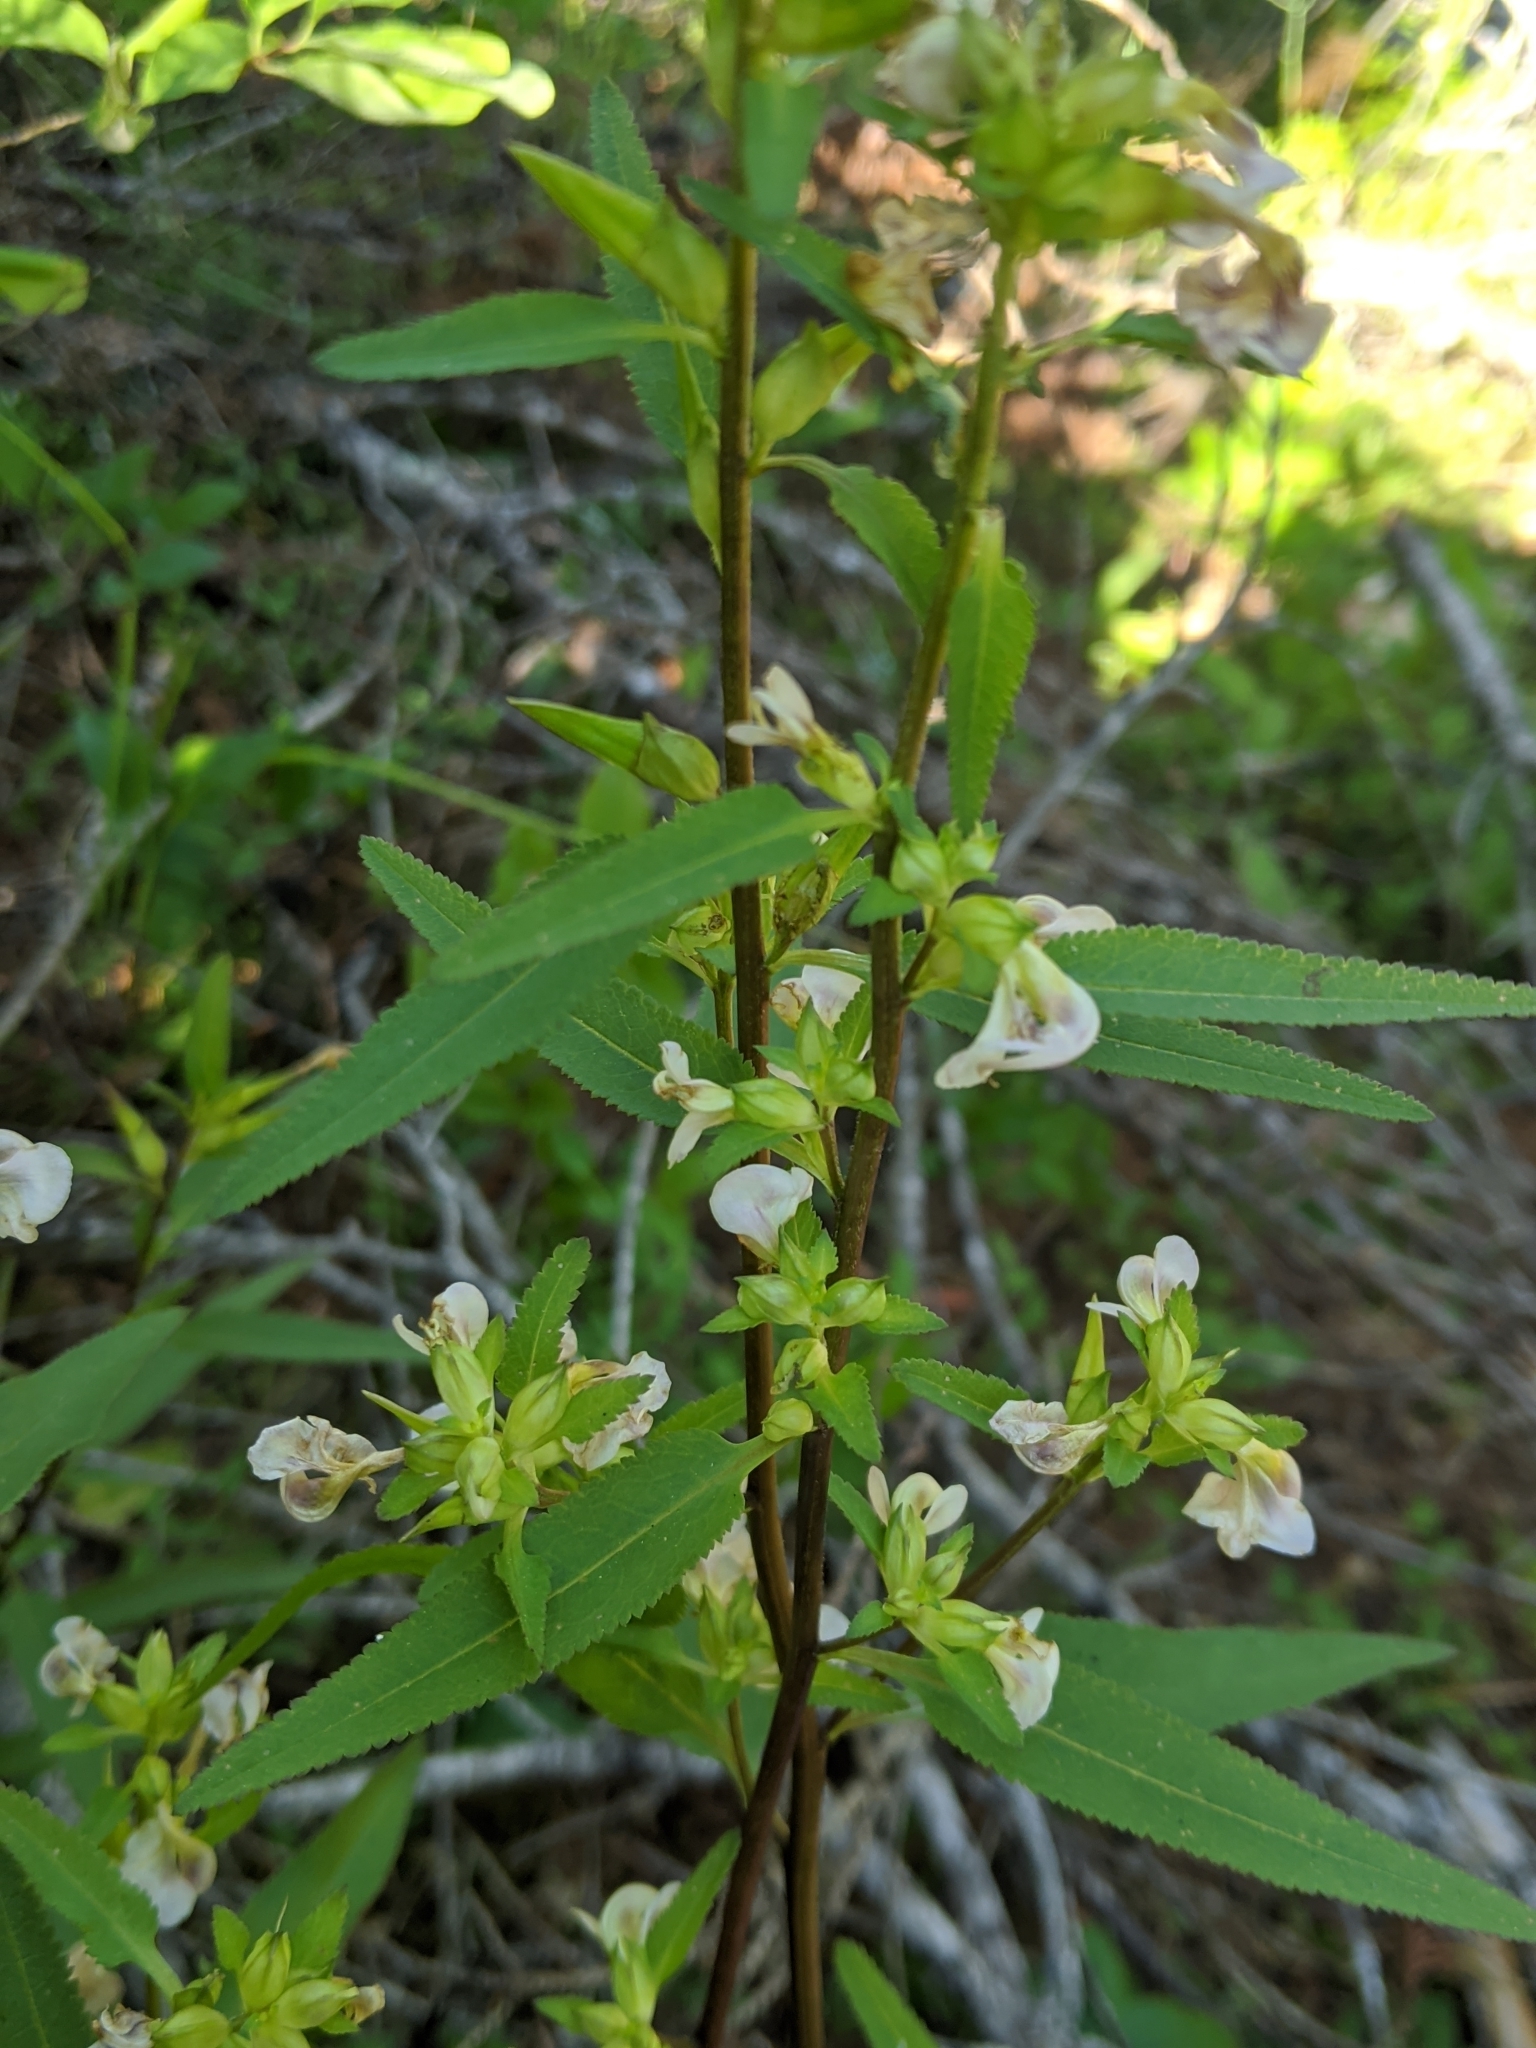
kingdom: Plantae
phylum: Tracheophyta
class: Magnoliopsida
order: Lamiales
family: Orobanchaceae
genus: Pedicularis
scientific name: Pedicularis racemosa
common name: Leafy lousewort
